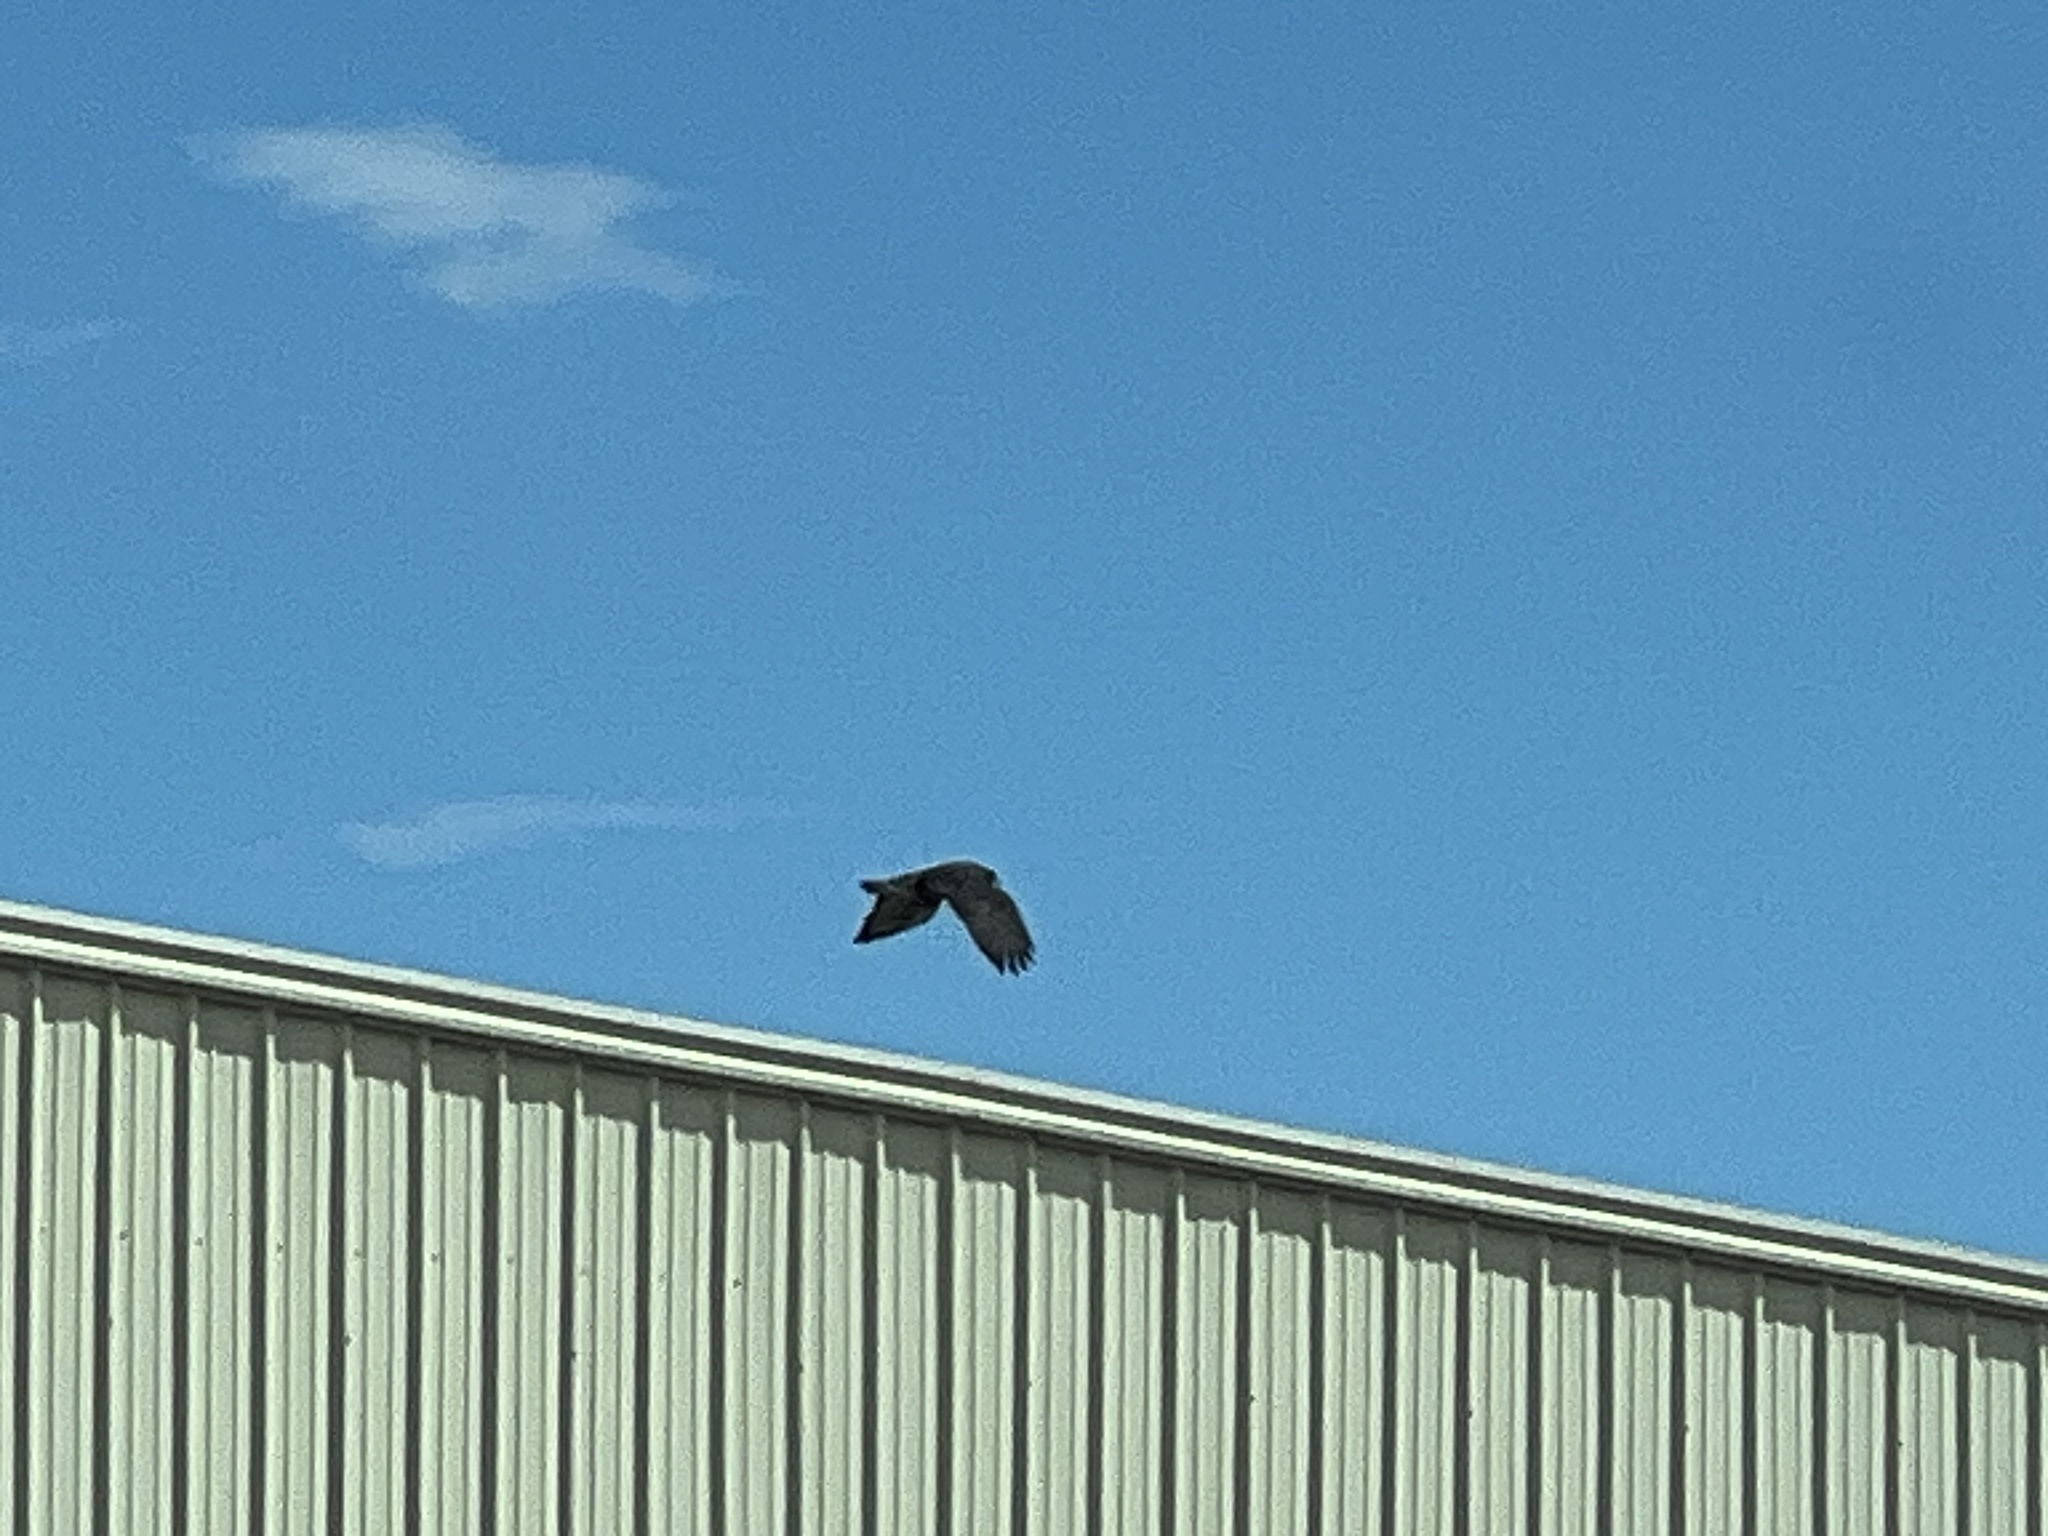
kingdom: Animalia
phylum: Chordata
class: Aves
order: Accipitriformes
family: Accipitridae
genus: Buteo
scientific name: Buteo albonotatus
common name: Zone-tailed hawk
